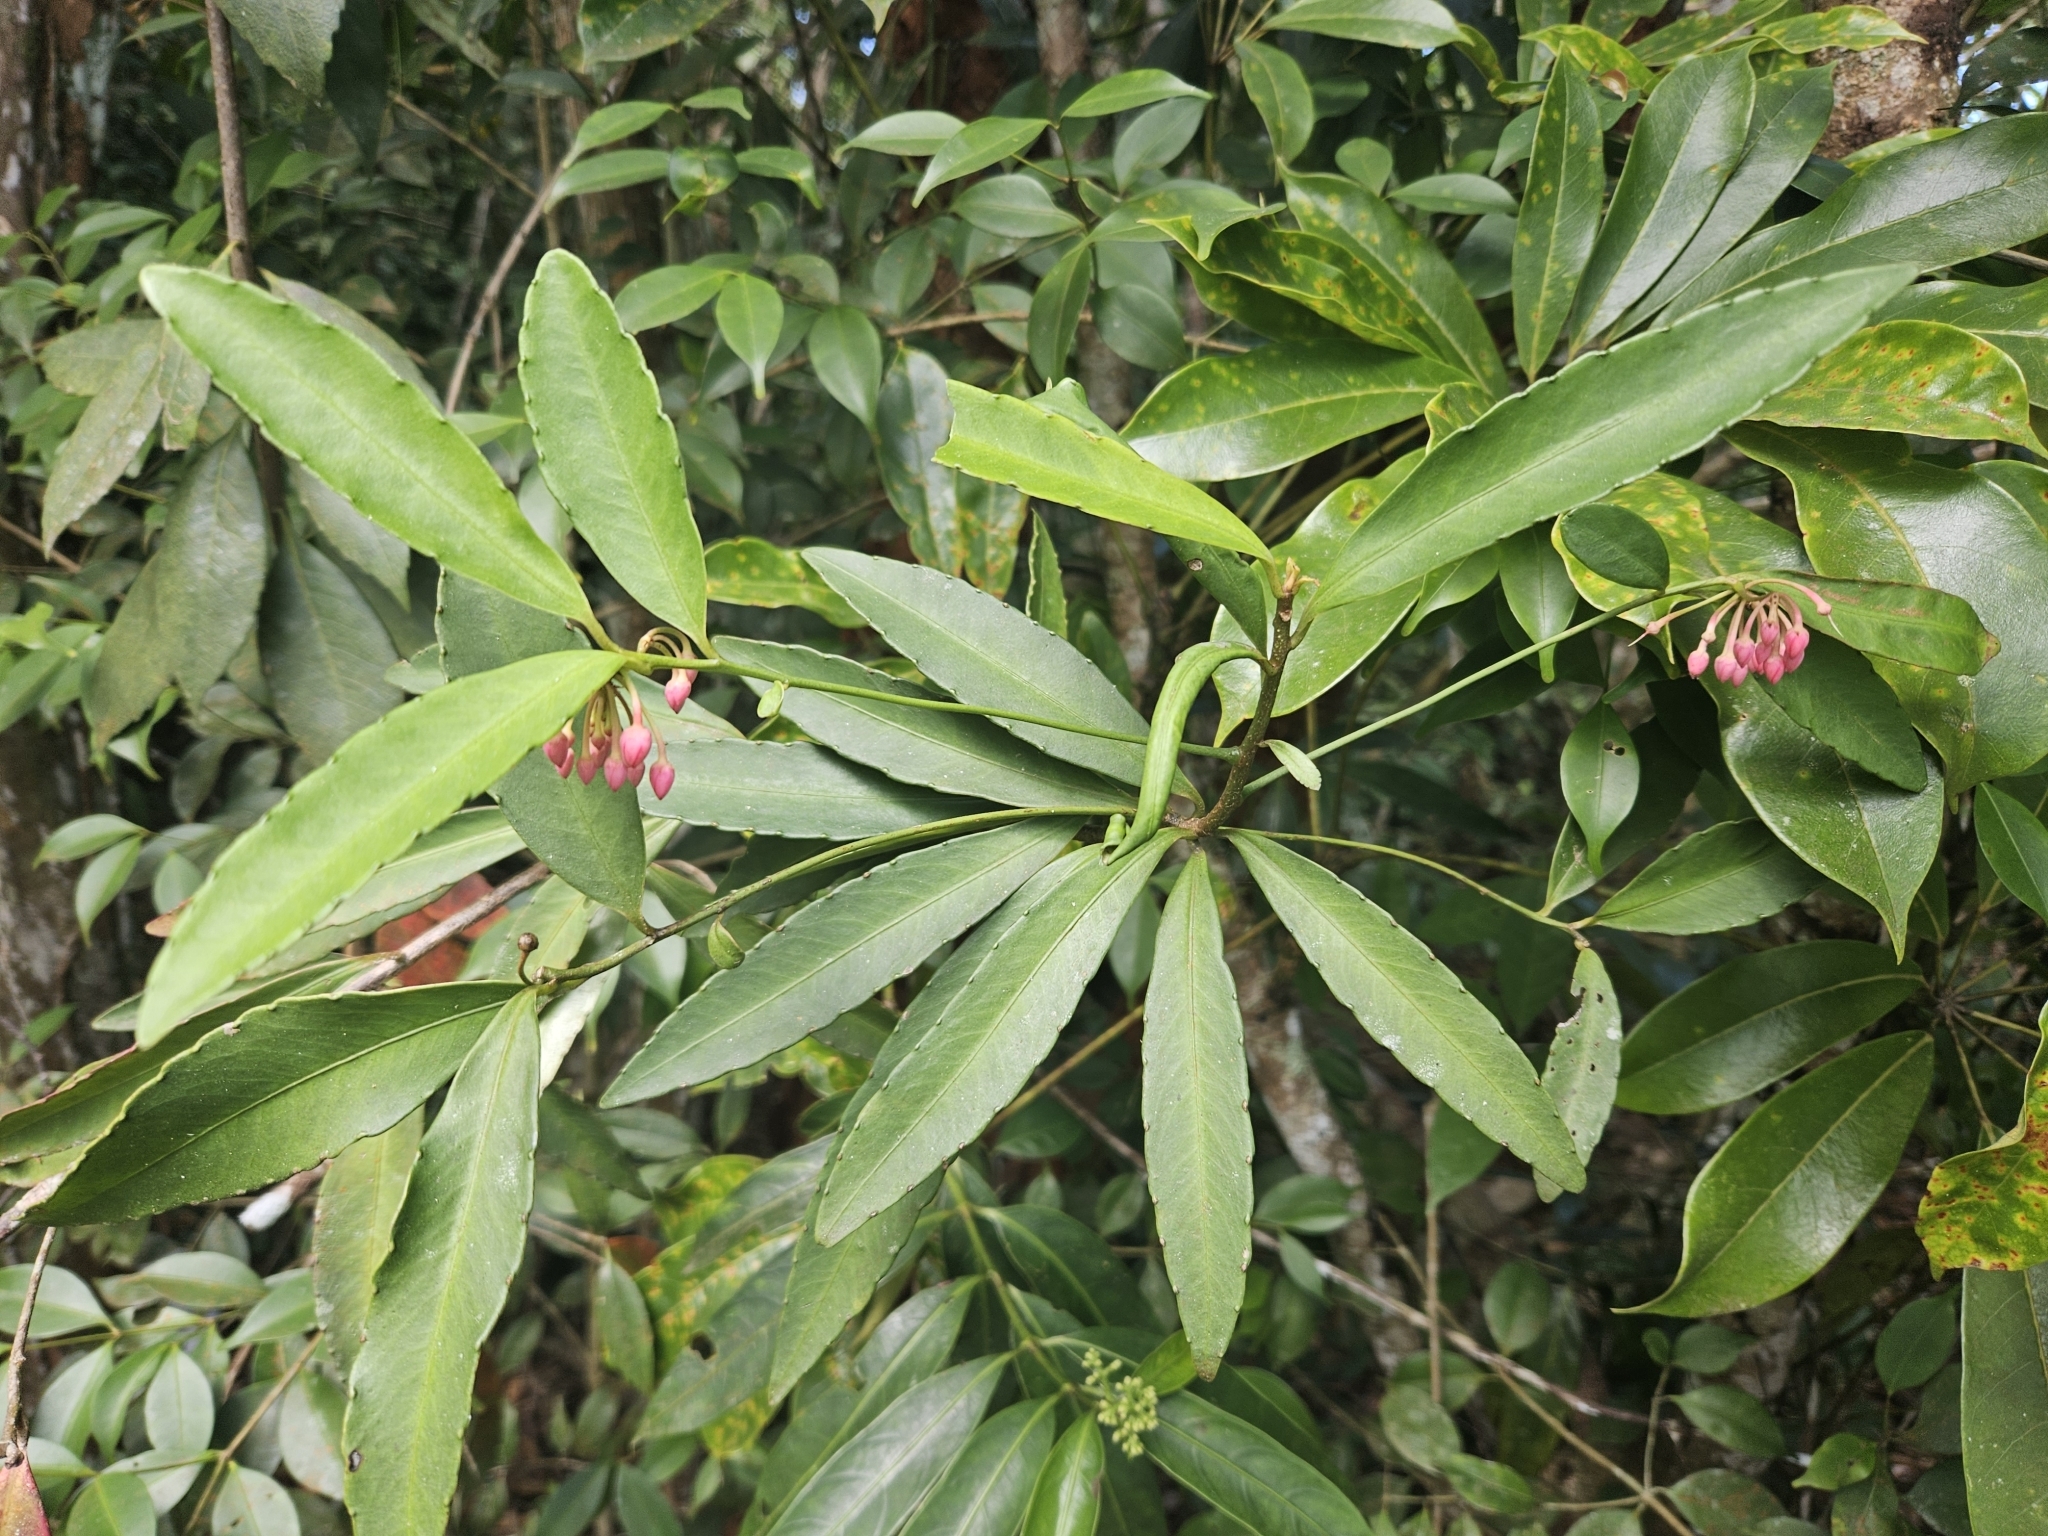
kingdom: Plantae
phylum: Tracheophyta
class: Magnoliopsida
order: Ericales
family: Primulaceae
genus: Ardisia
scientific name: Ardisia crenata
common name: Hen's eyes
